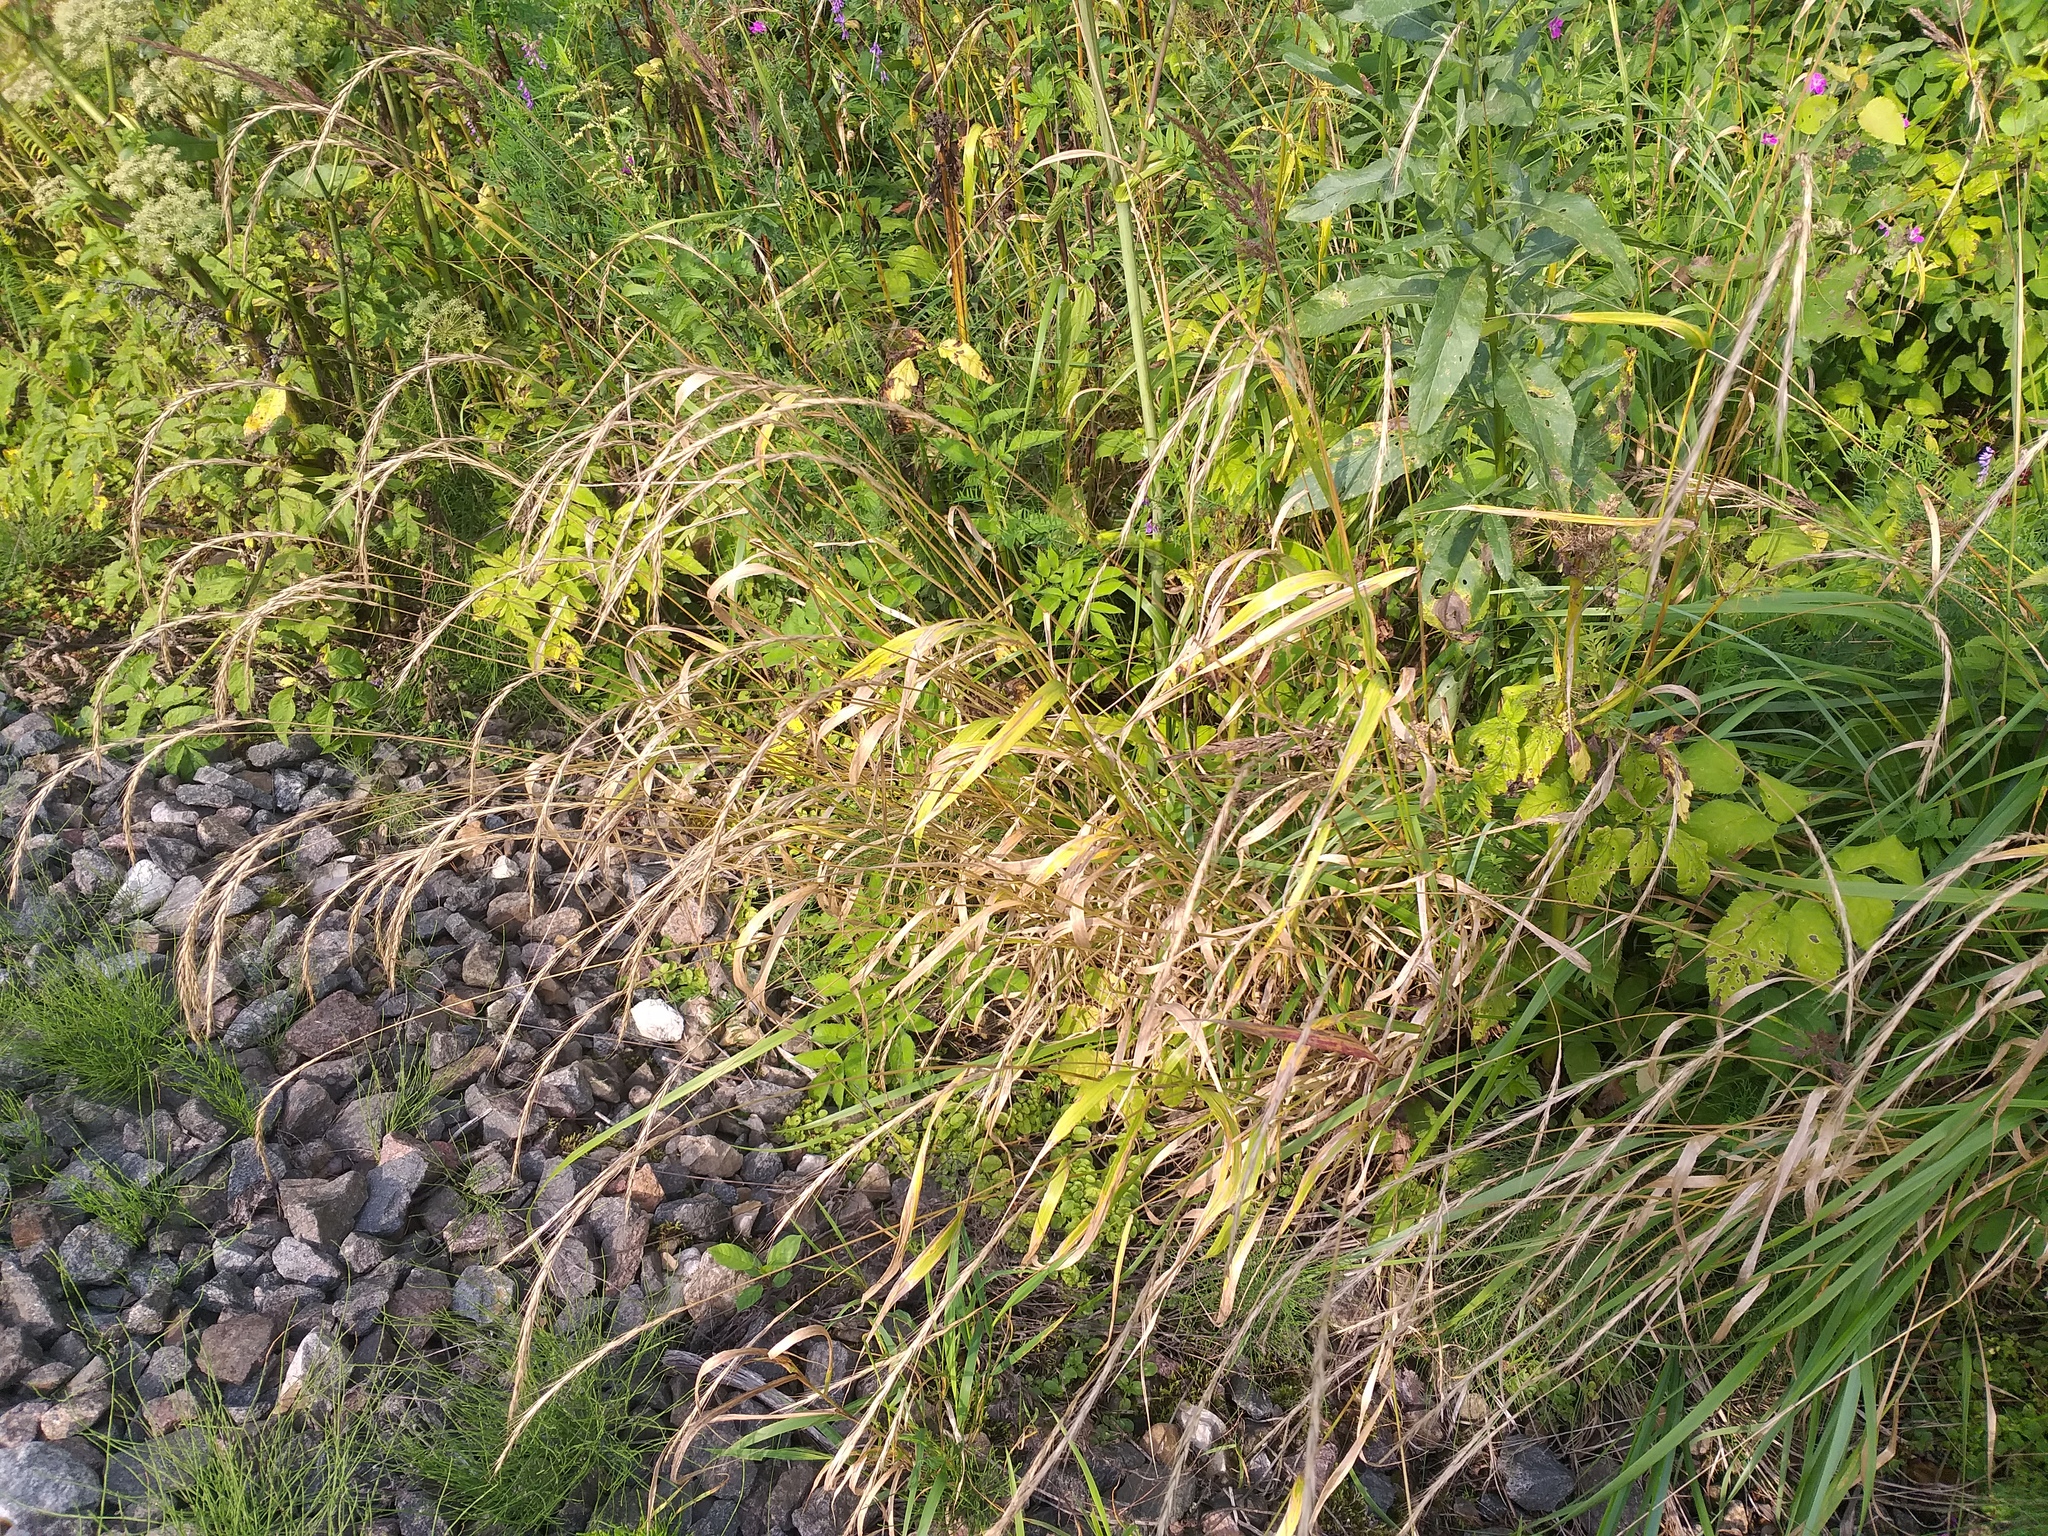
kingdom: Plantae
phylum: Tracheophyta
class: Liliopsida
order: Poales
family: Poaceae
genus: Elymus
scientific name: Elymus caninus
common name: Bearded couch
